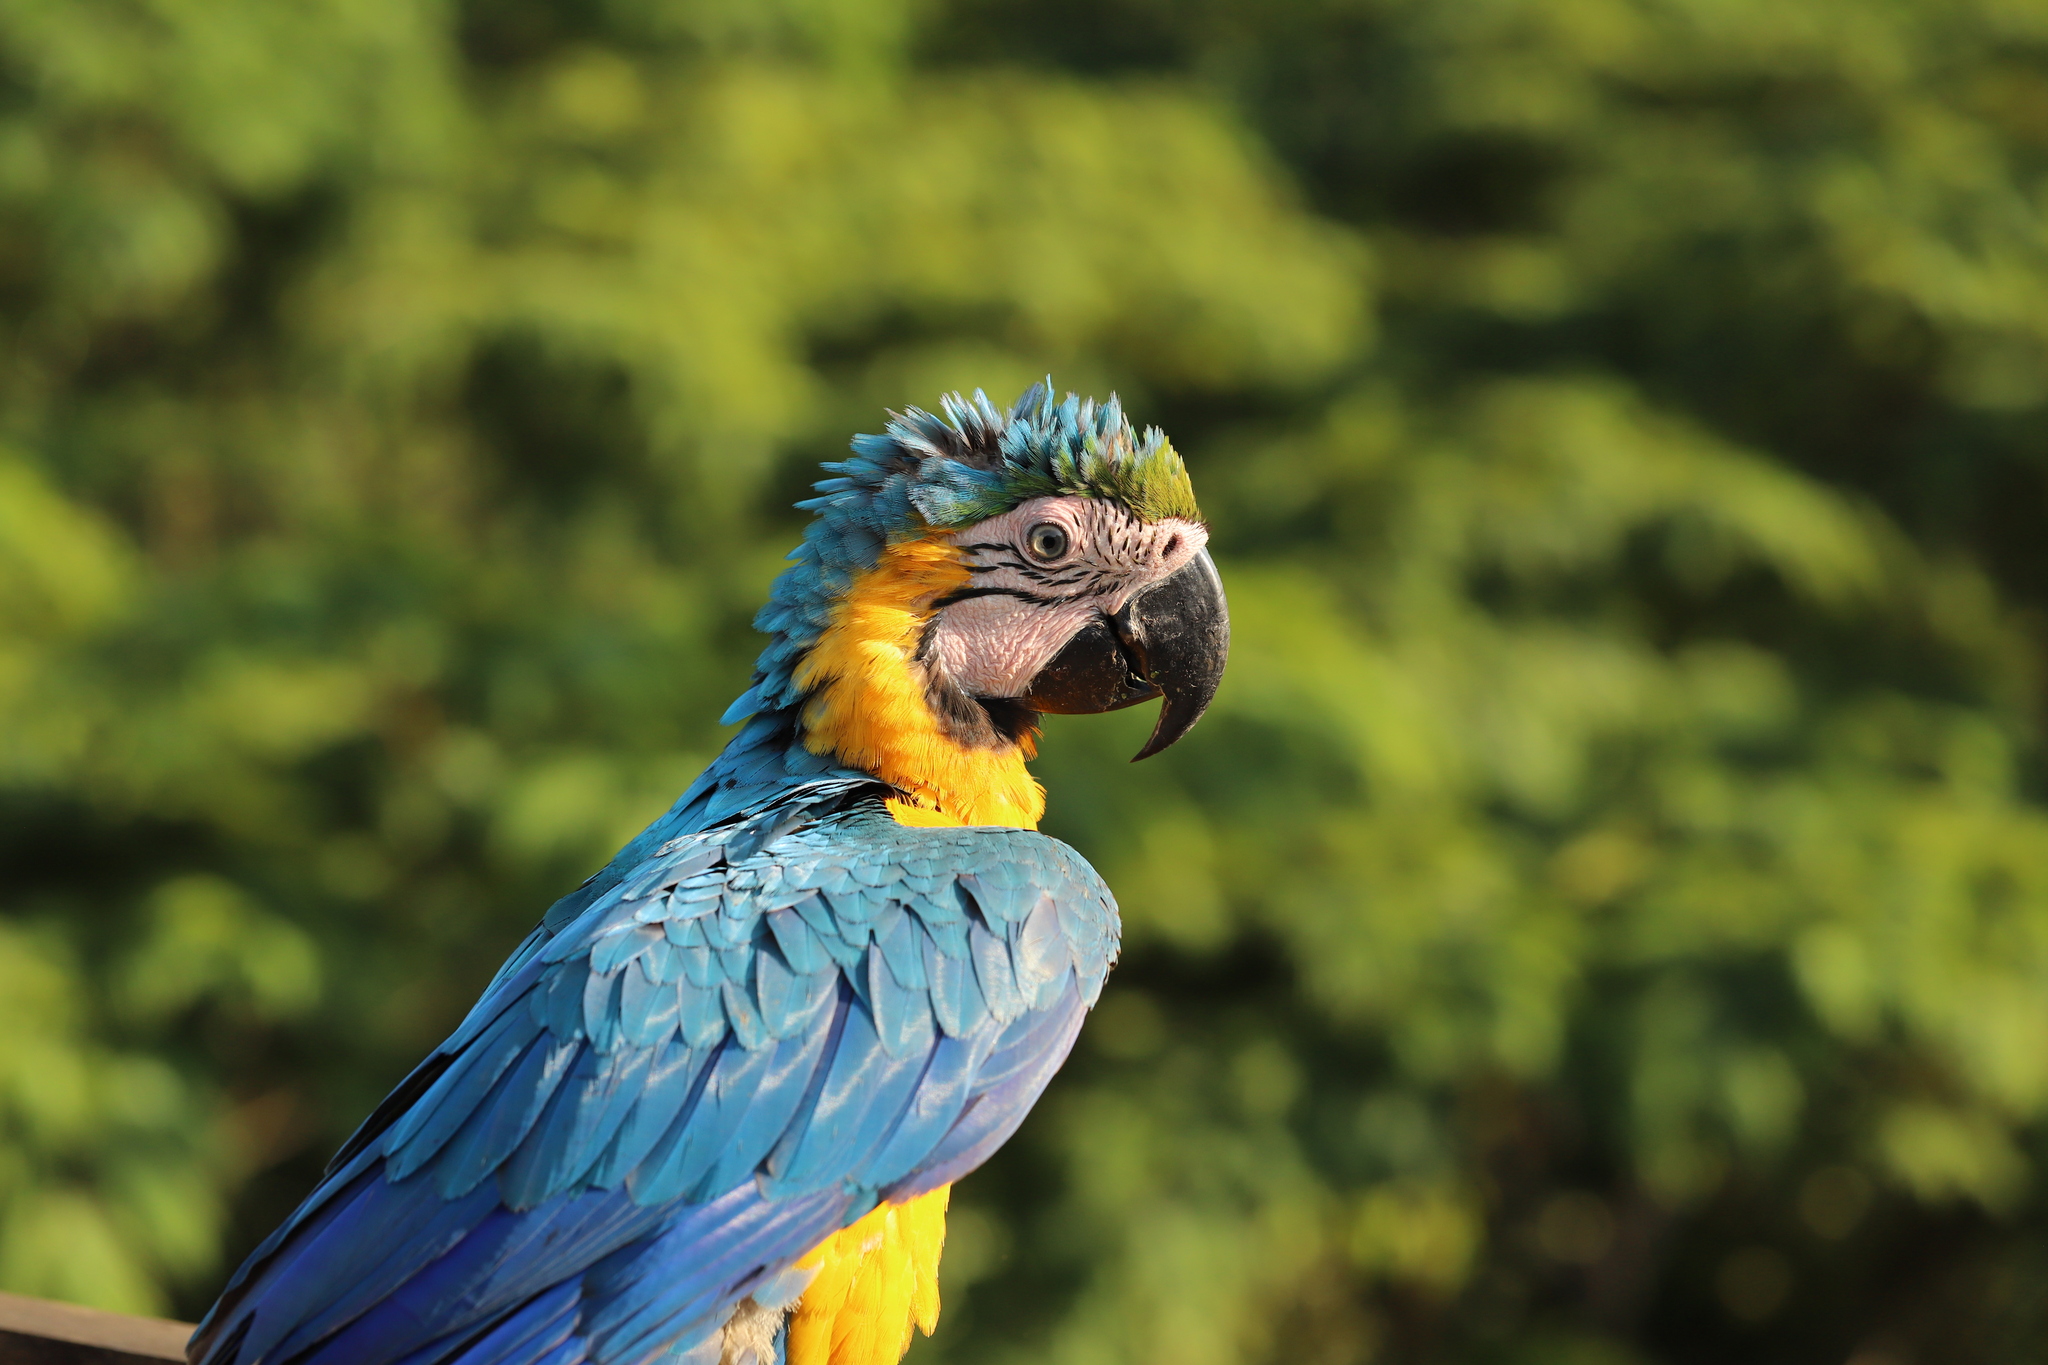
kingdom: Animalia
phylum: Chordata
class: Aves
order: Psittaciformes
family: Psittacidae
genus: Ara
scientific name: Ara ararauna
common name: Blue-and-yellow macaw
